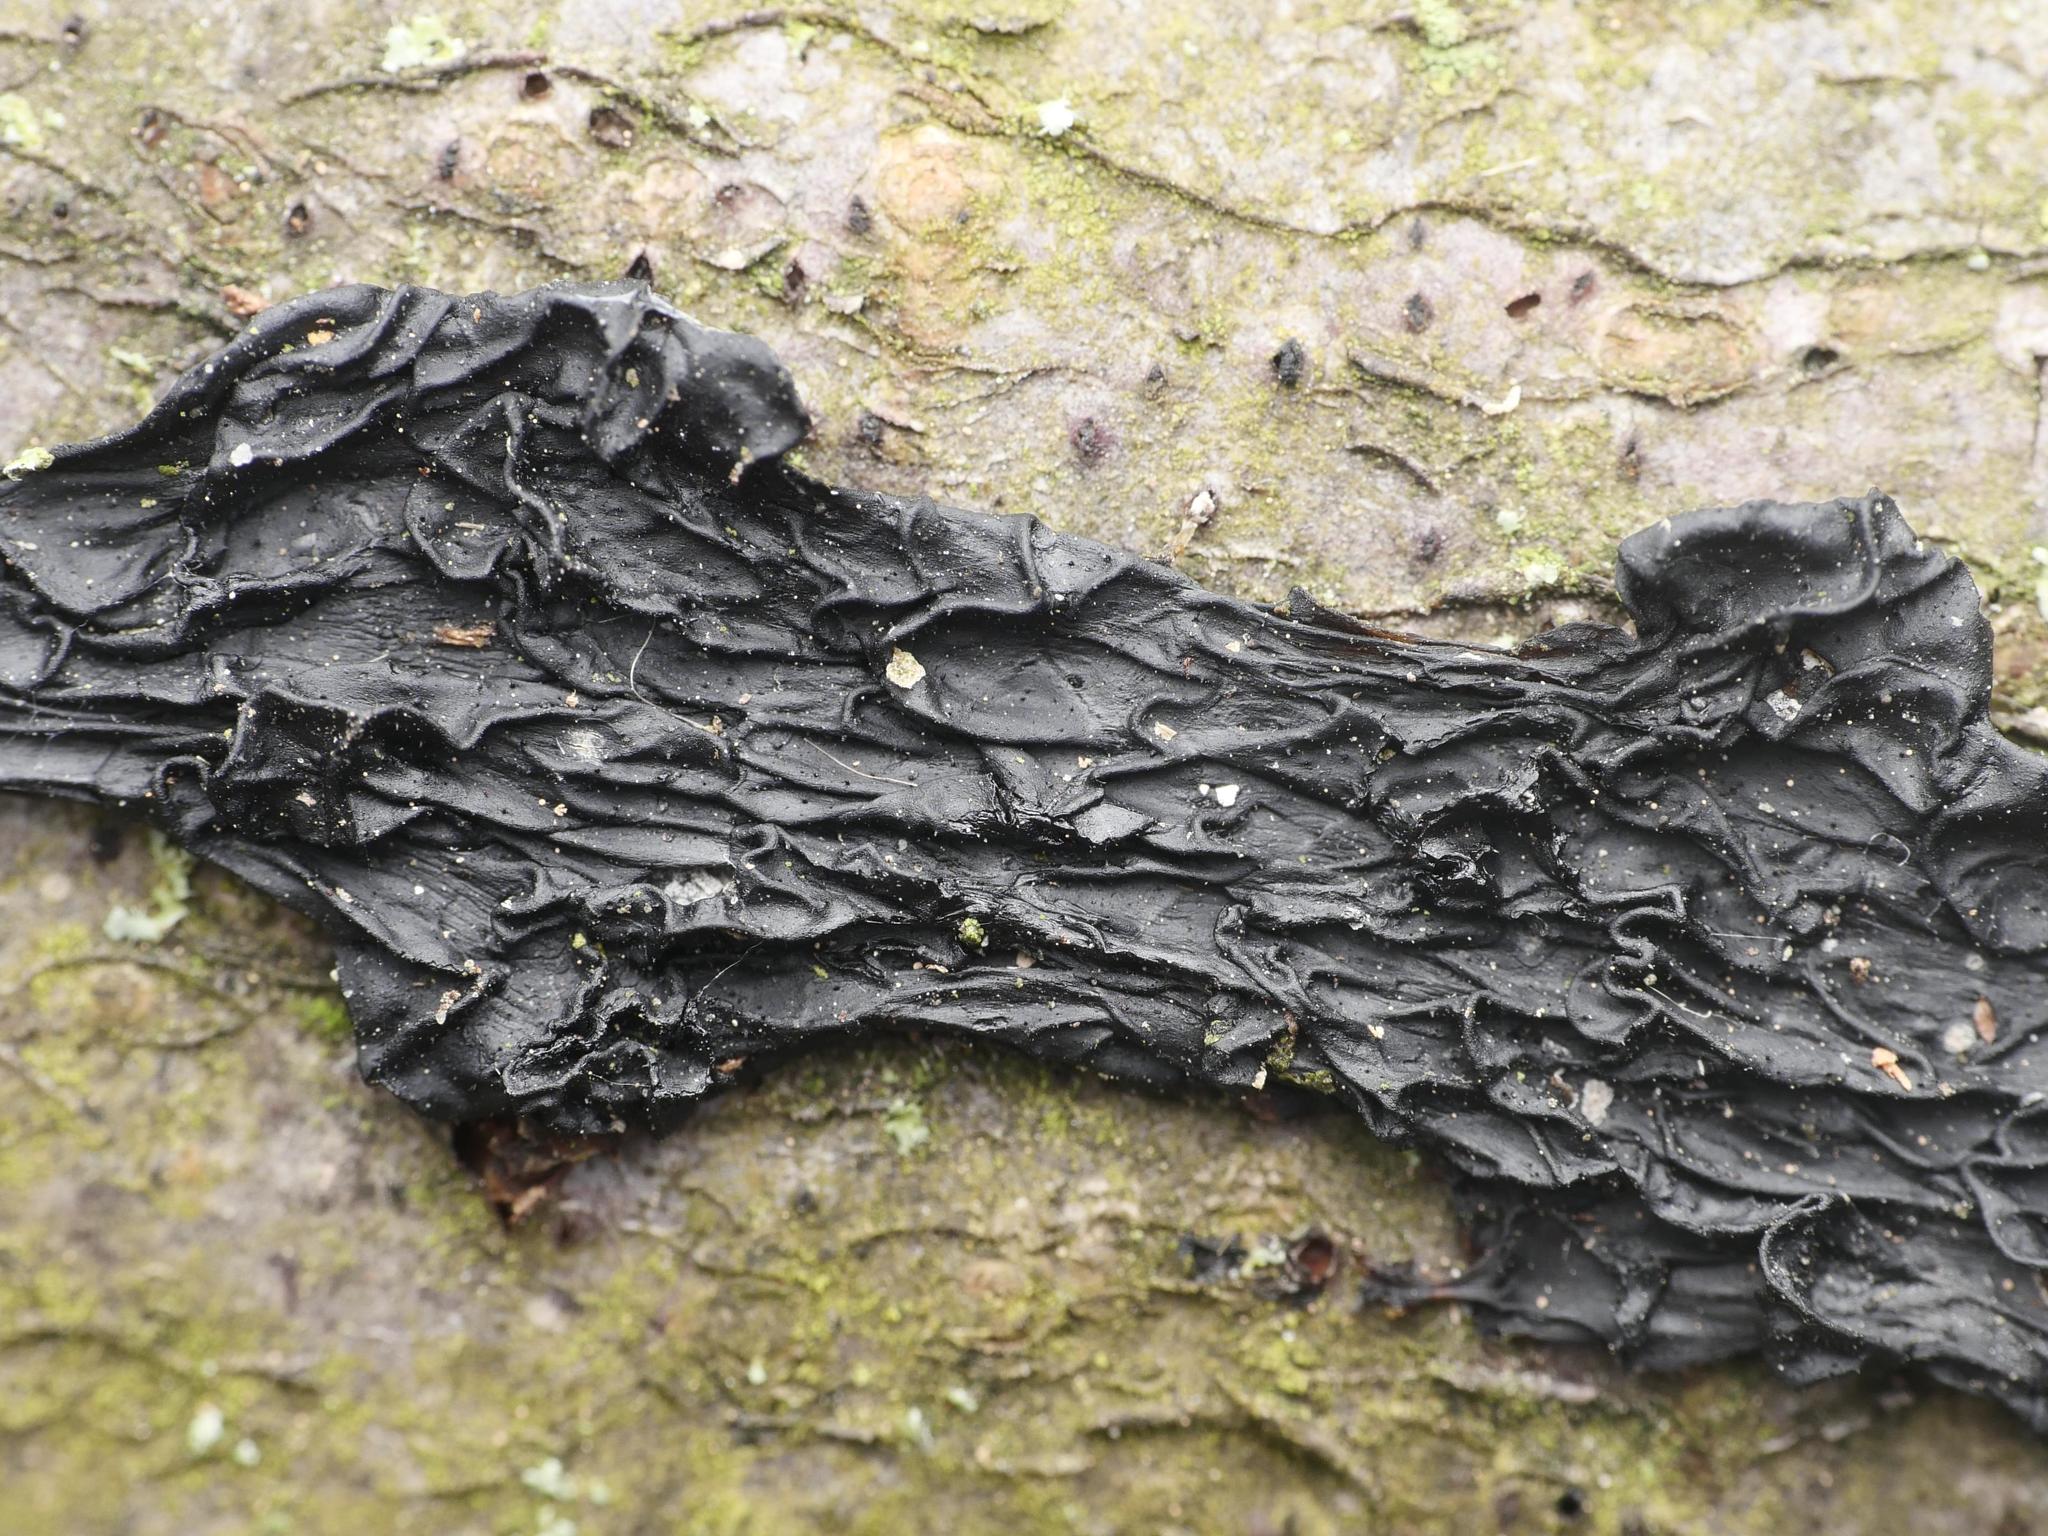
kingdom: Fungi
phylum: Basidiomycota
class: Agaricomycetes
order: Auriculariales
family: Auriculariaceae
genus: Exidia
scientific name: Exidia nigricans
